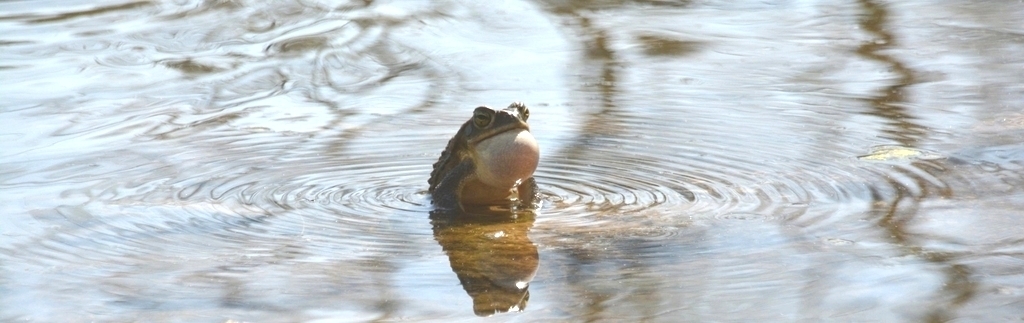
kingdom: Animalia
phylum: Chordata
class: Amphibia
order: Anura
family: Bufonidae
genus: Rhinella
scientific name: Rhinella arenarum
